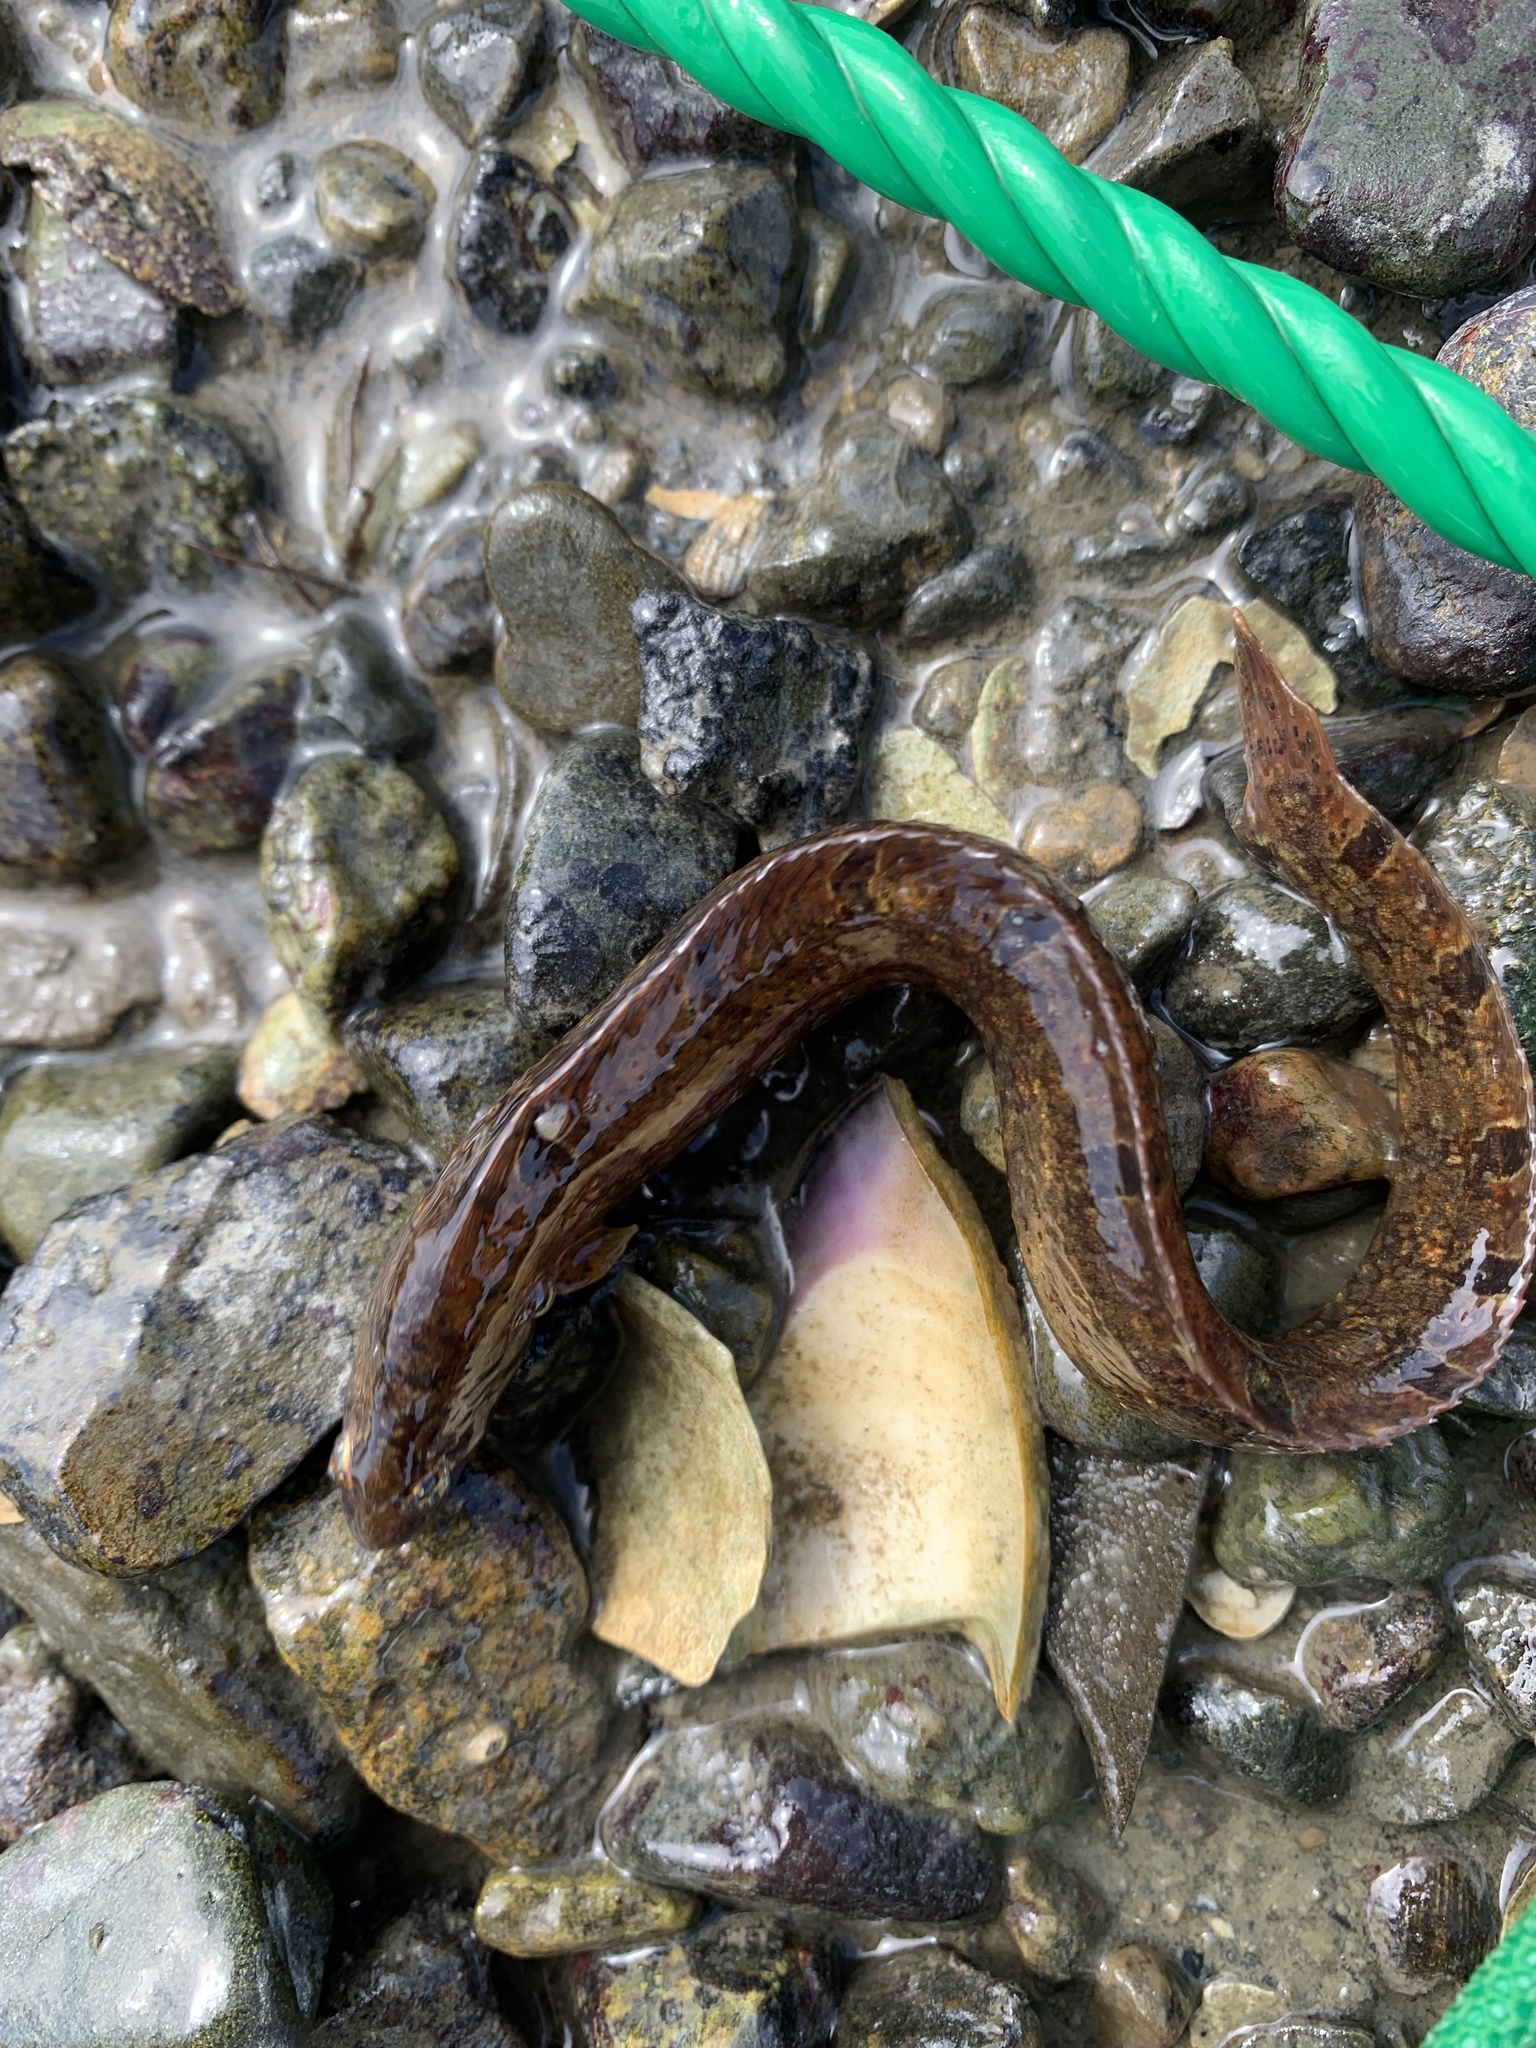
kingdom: Animalia
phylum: Chordata
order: Perciformes
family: Pholidae
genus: Pholis
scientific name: Pholis gunnellus
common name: Butterfish
